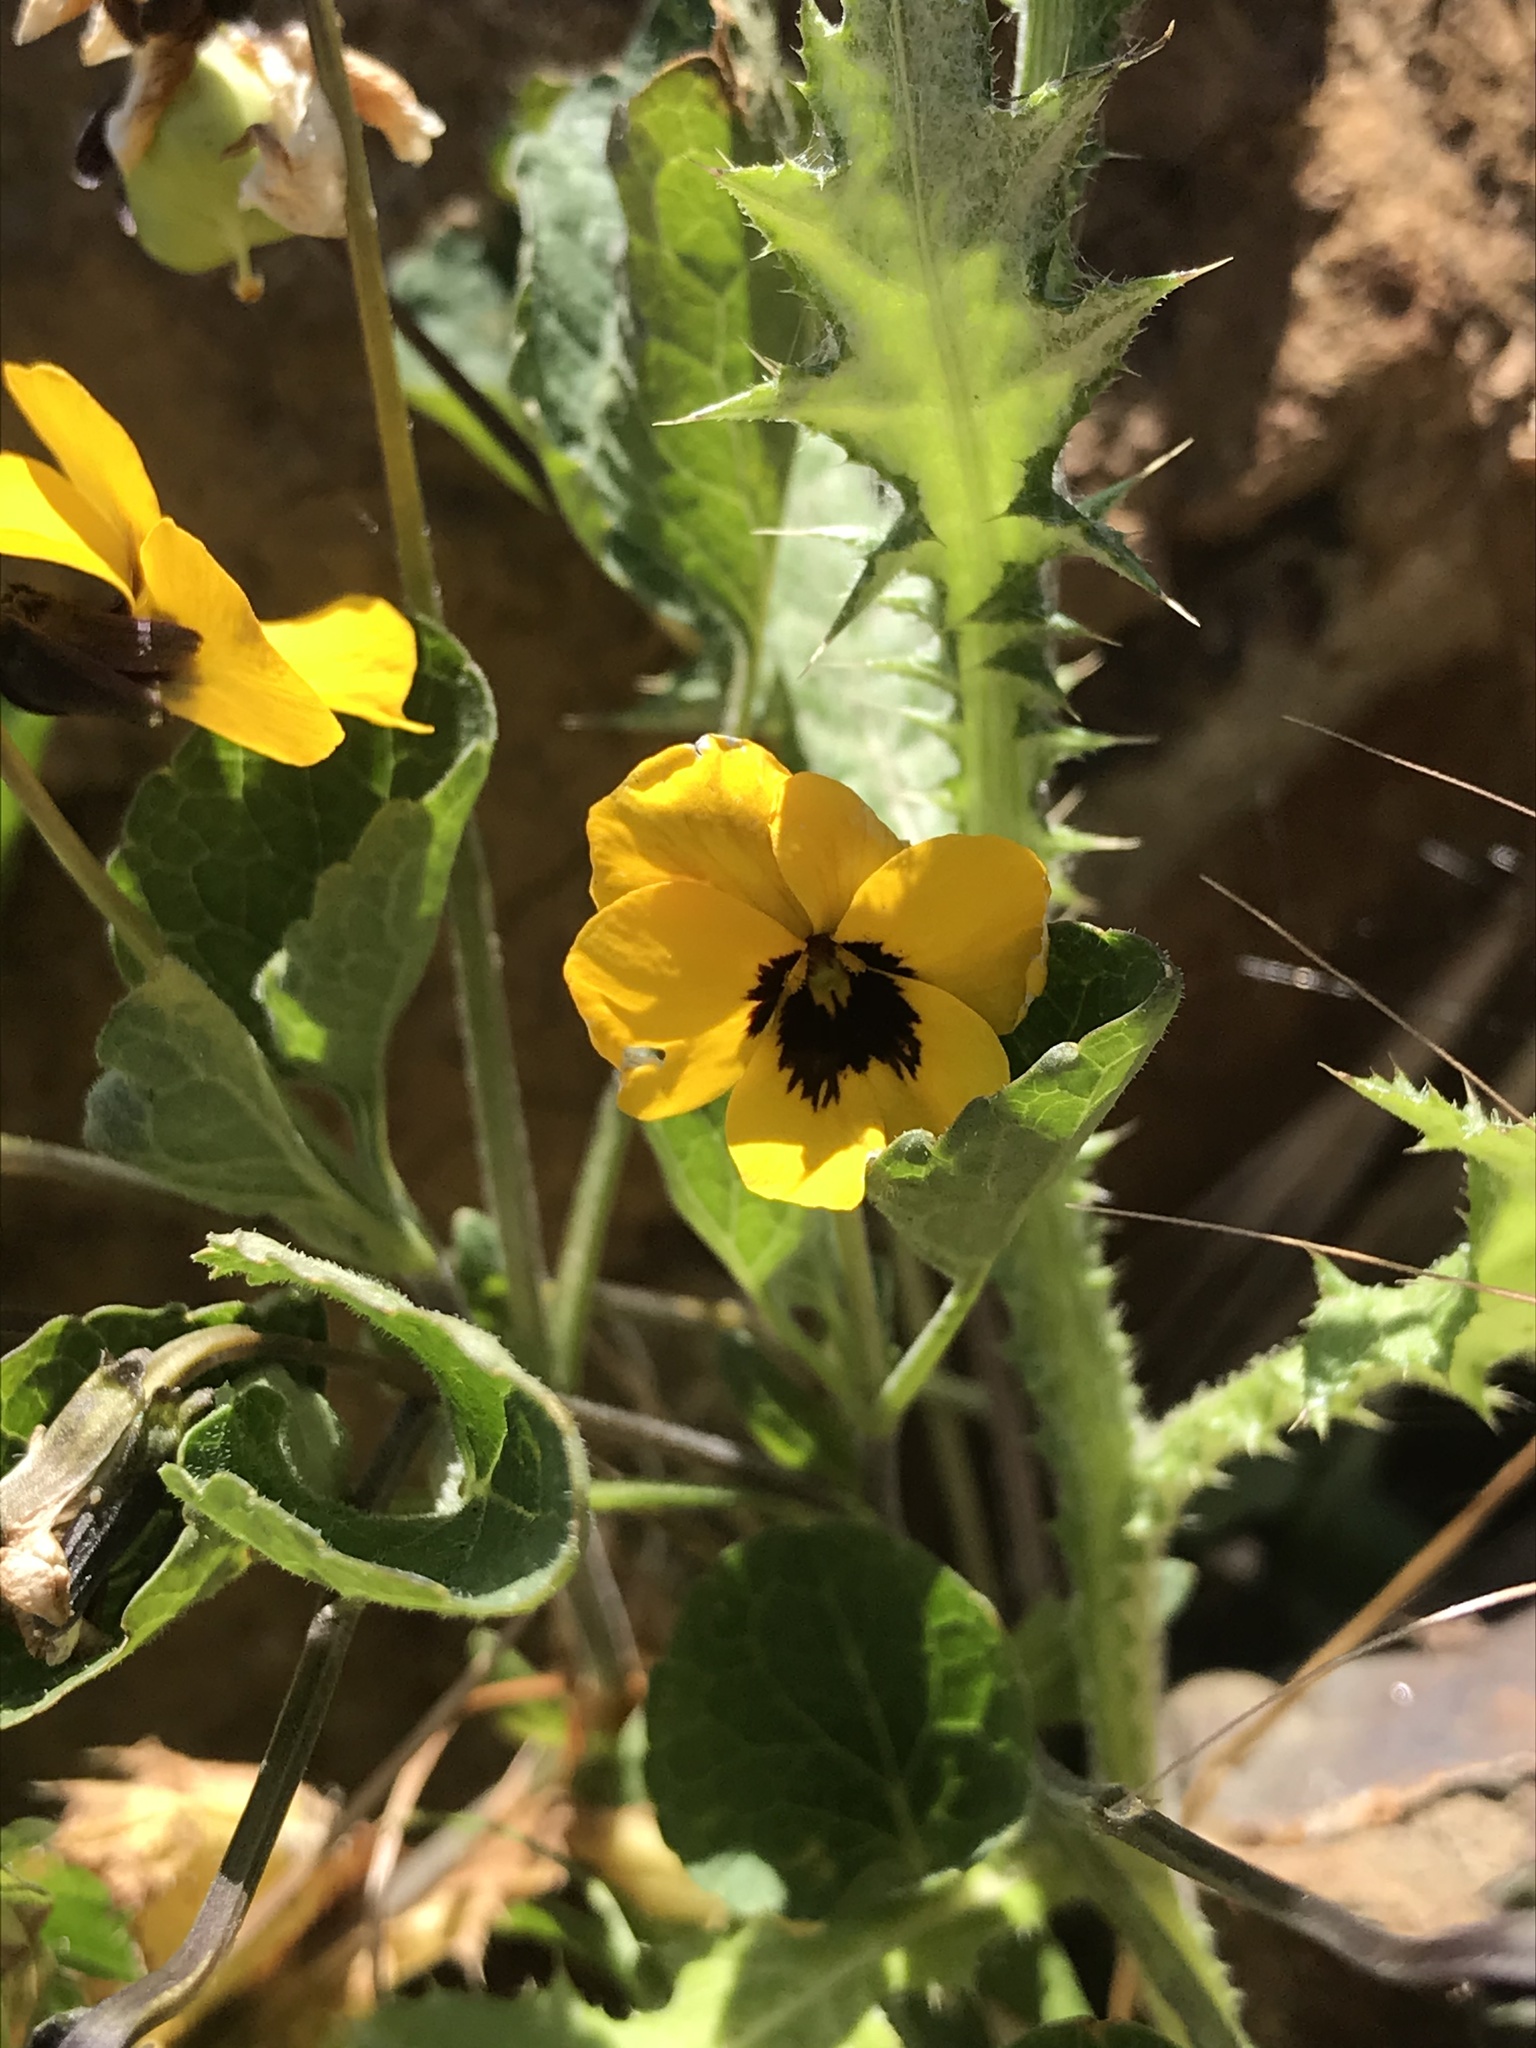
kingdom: Plantae
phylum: Tracheophyta
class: Magnoliopsida
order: Malpighiales
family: Violaceae
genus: Viola
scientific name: Viola pedunculata
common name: California golden violet
